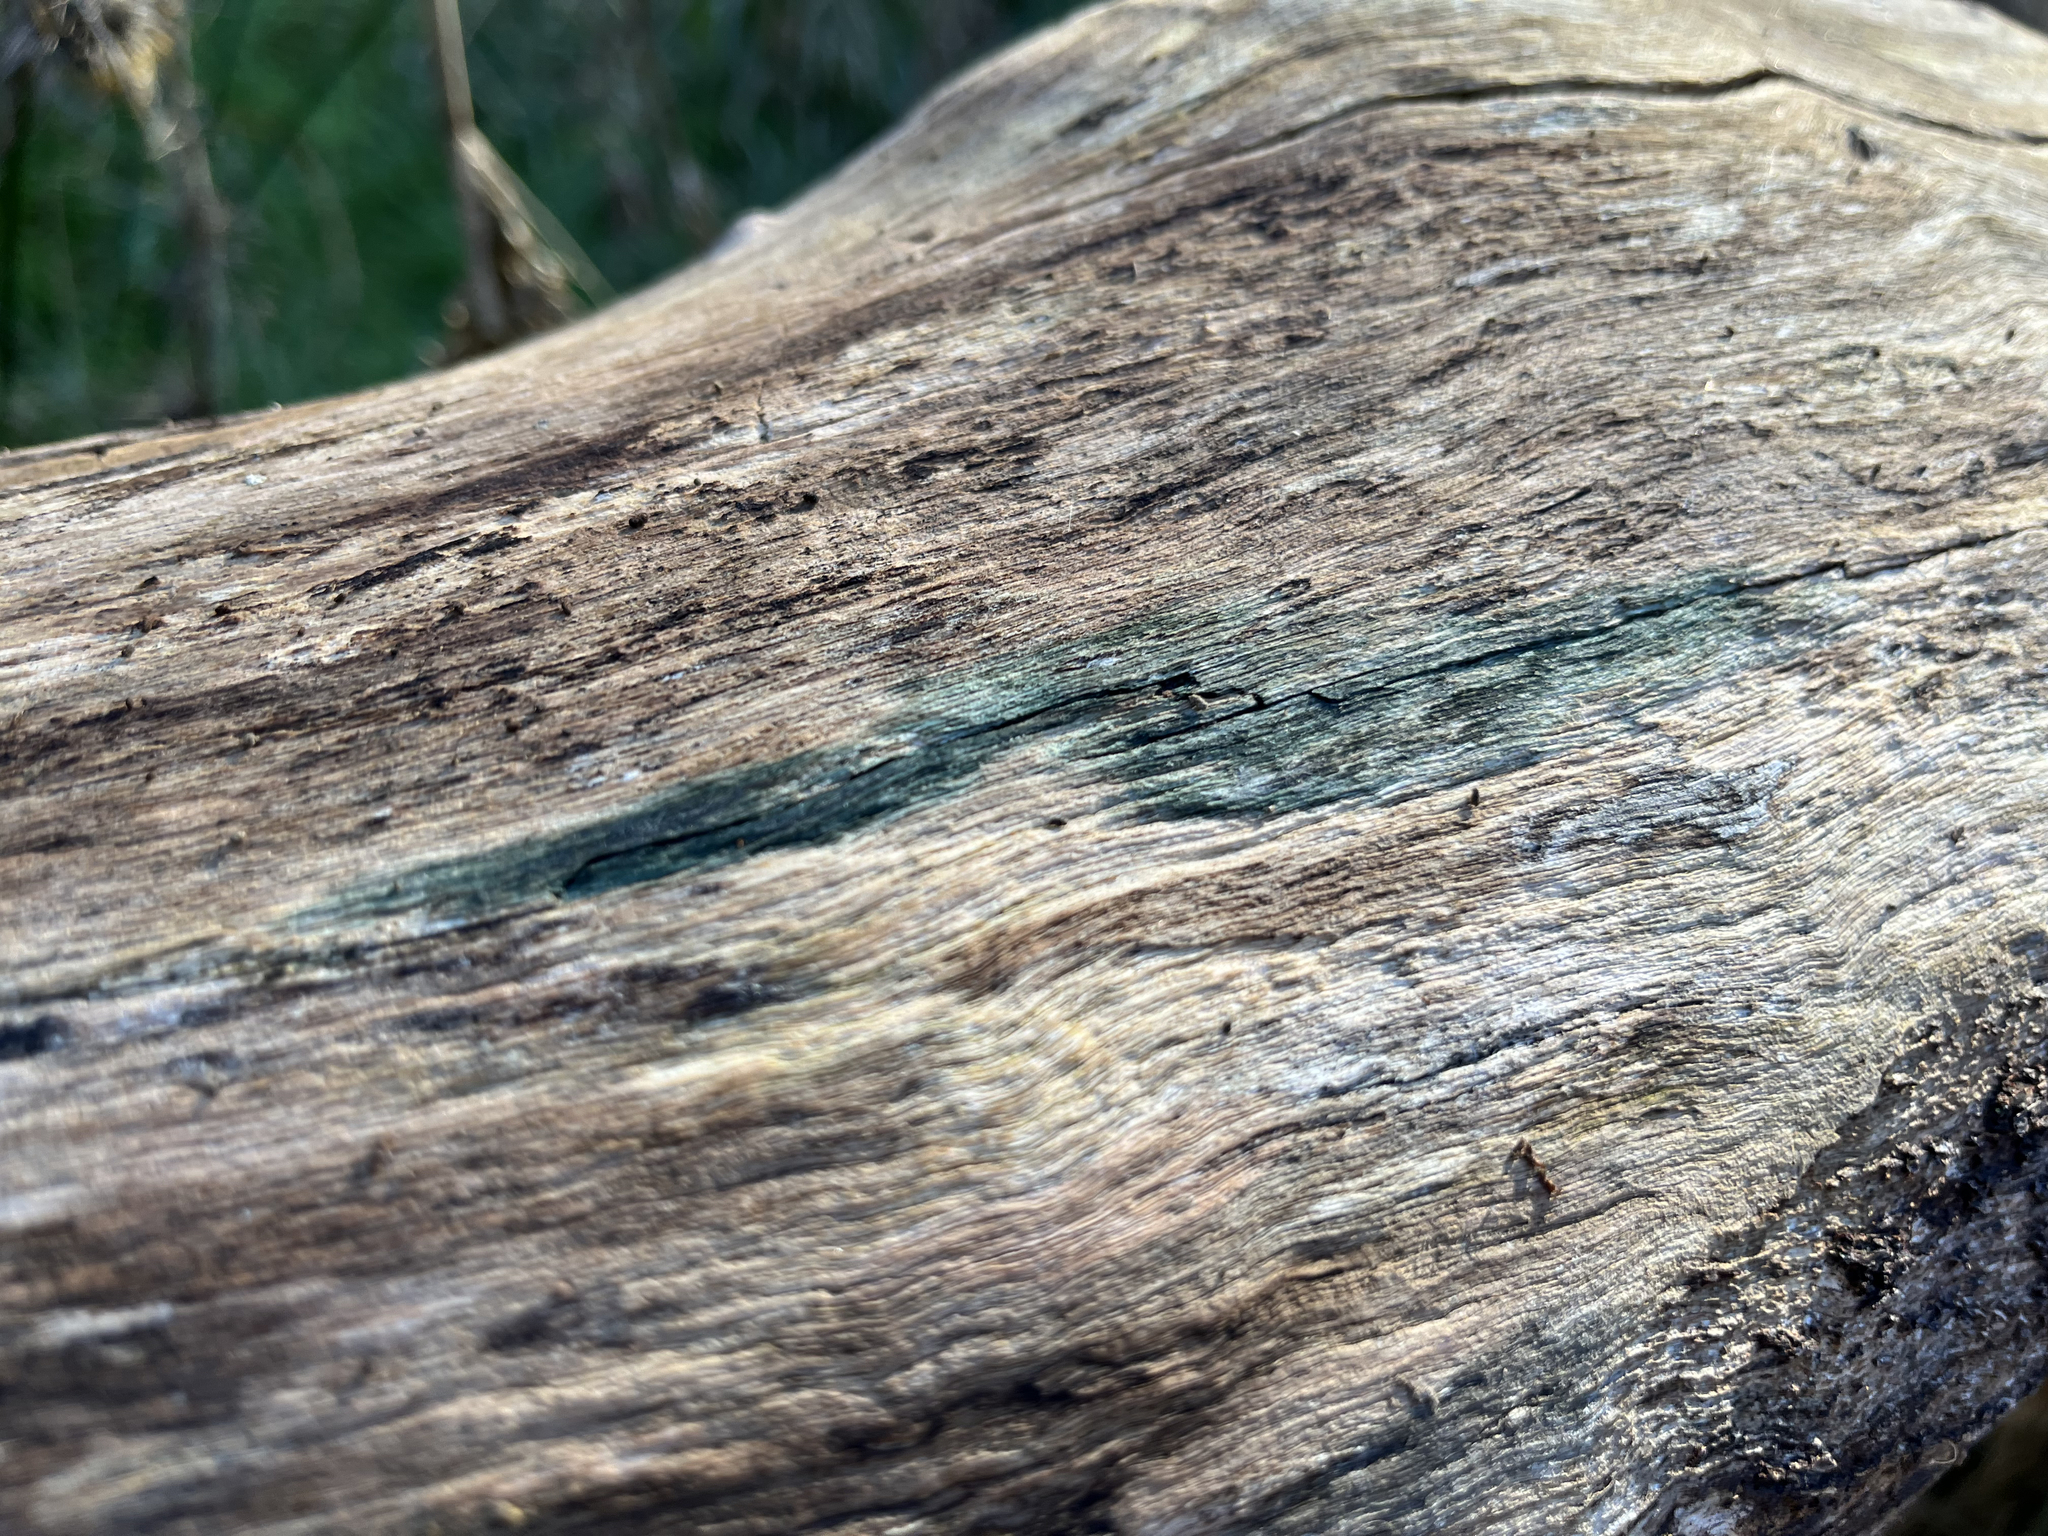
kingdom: Fungi
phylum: Ascomycota
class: Leotiomycetes
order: Helotiales
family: Chlorociboriaceae
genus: Chlorociboria
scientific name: Chlorociboria aeruginascens
